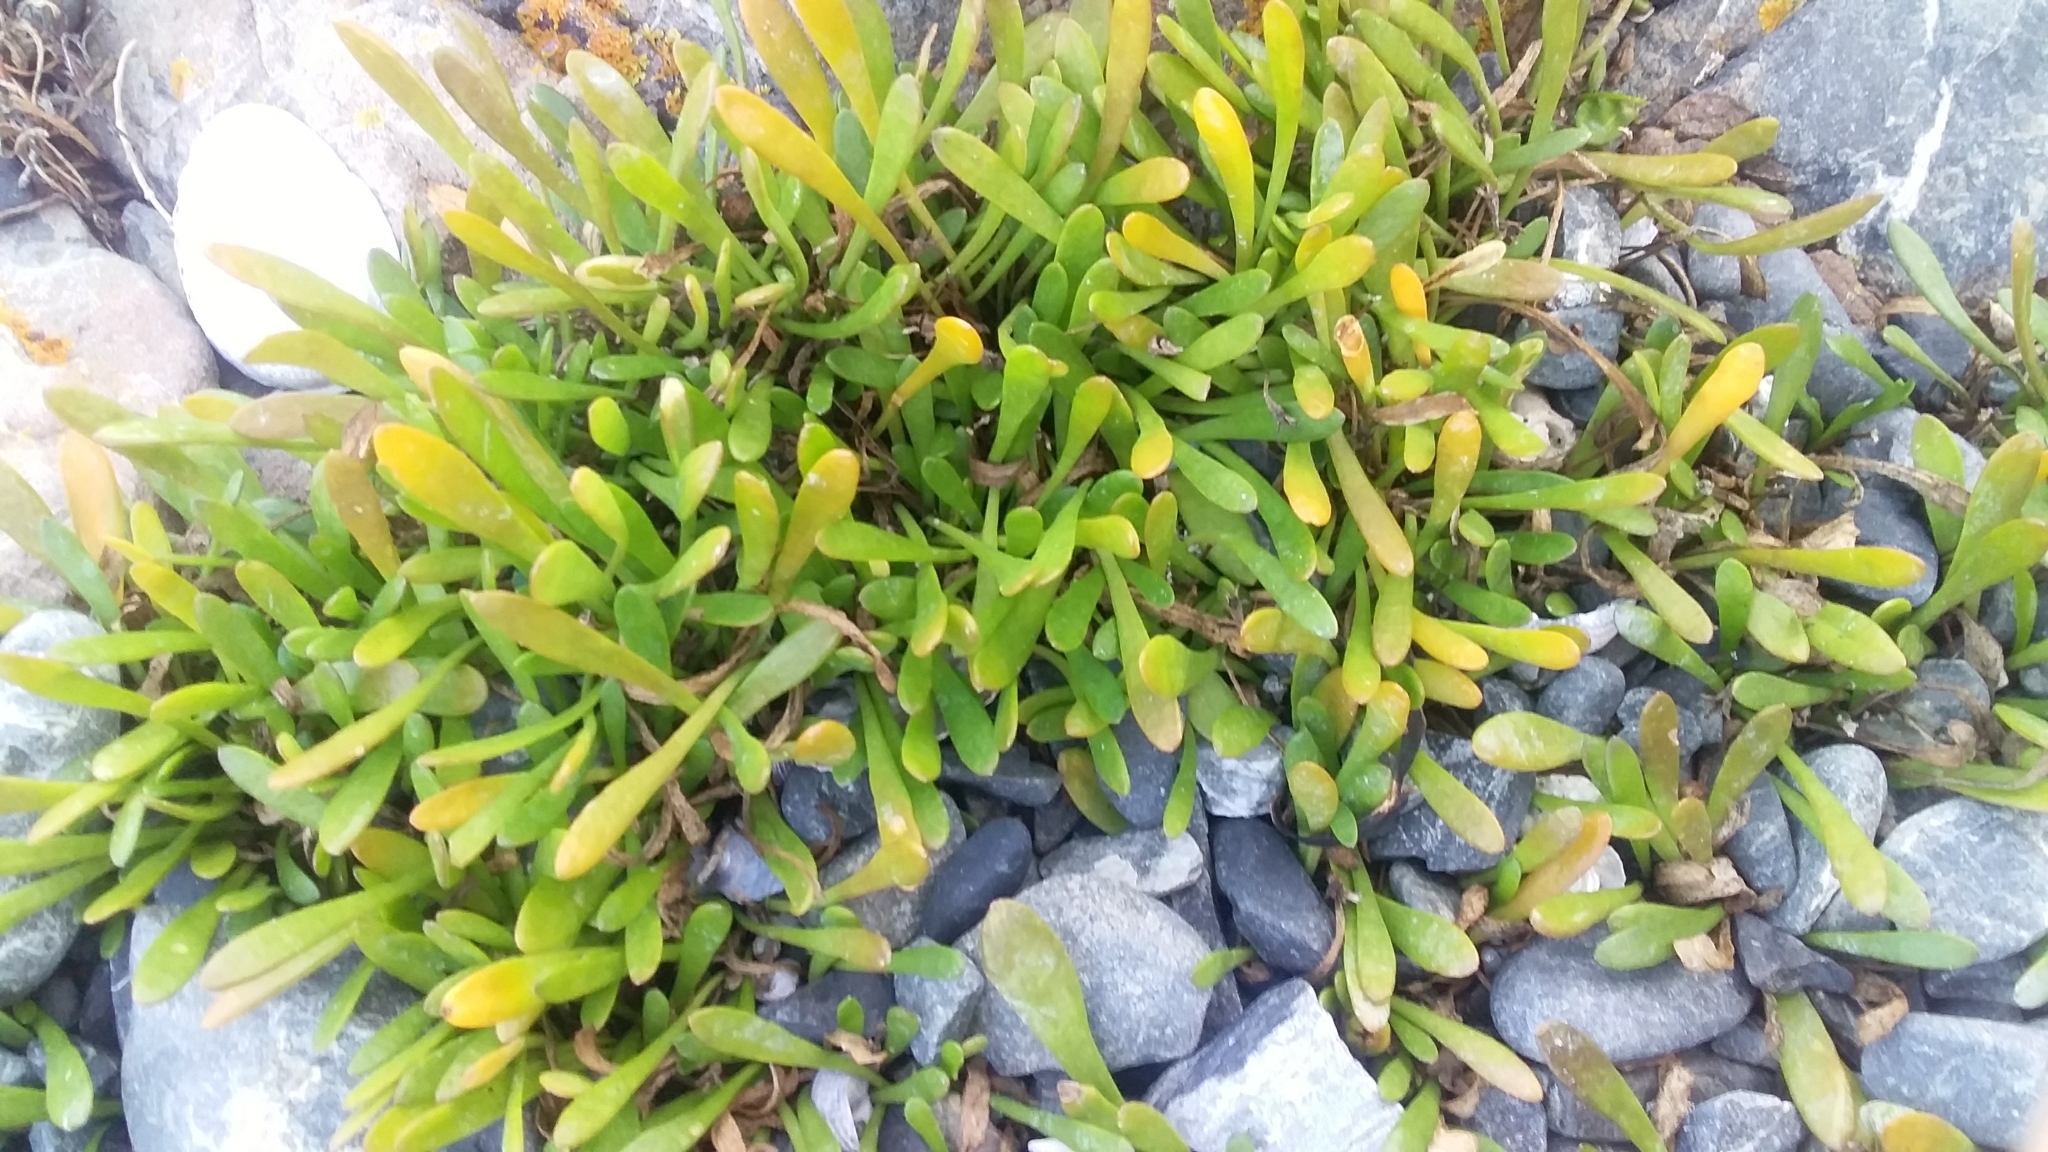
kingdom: Plantae
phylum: Tracheophyta
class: Magnoliopsida
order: Asterales
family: Goodeniaceae
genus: Goodenia
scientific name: Goodenia radicans
